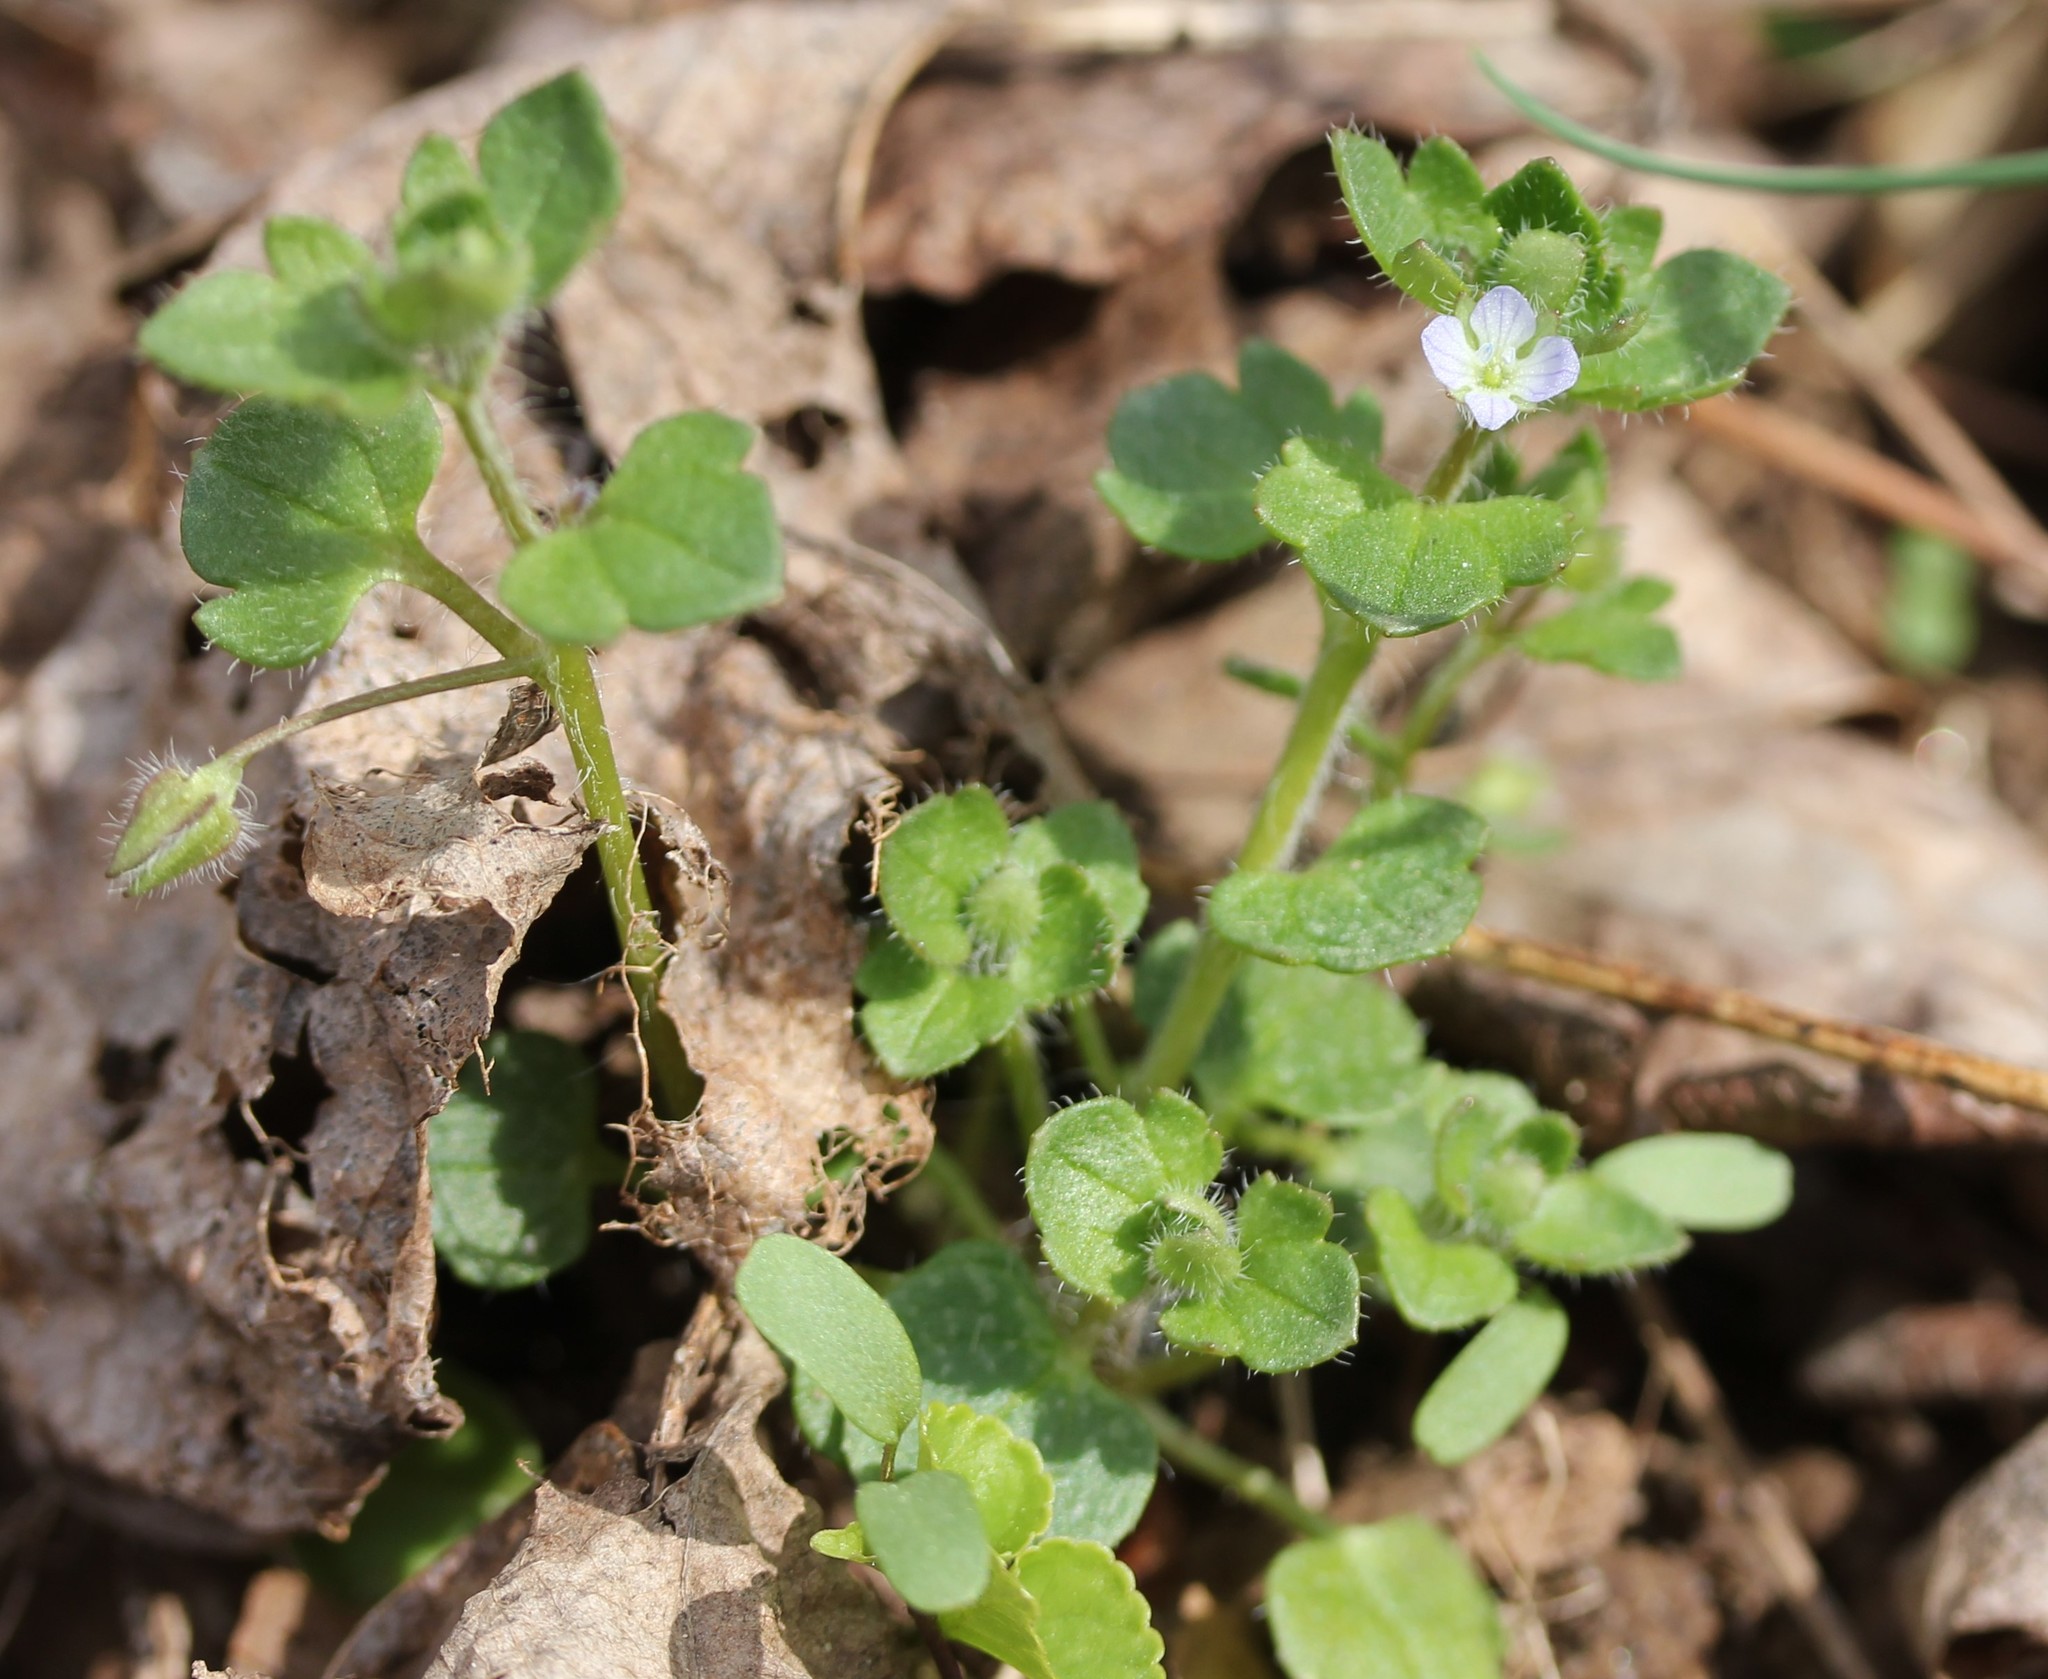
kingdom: Plantae
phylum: Tracheophyta
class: Magnoliopsida
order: Lamiales
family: Plantaginaceae
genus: Veronica
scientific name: Veronica hederifolia
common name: Ivy-leaved speedwell
